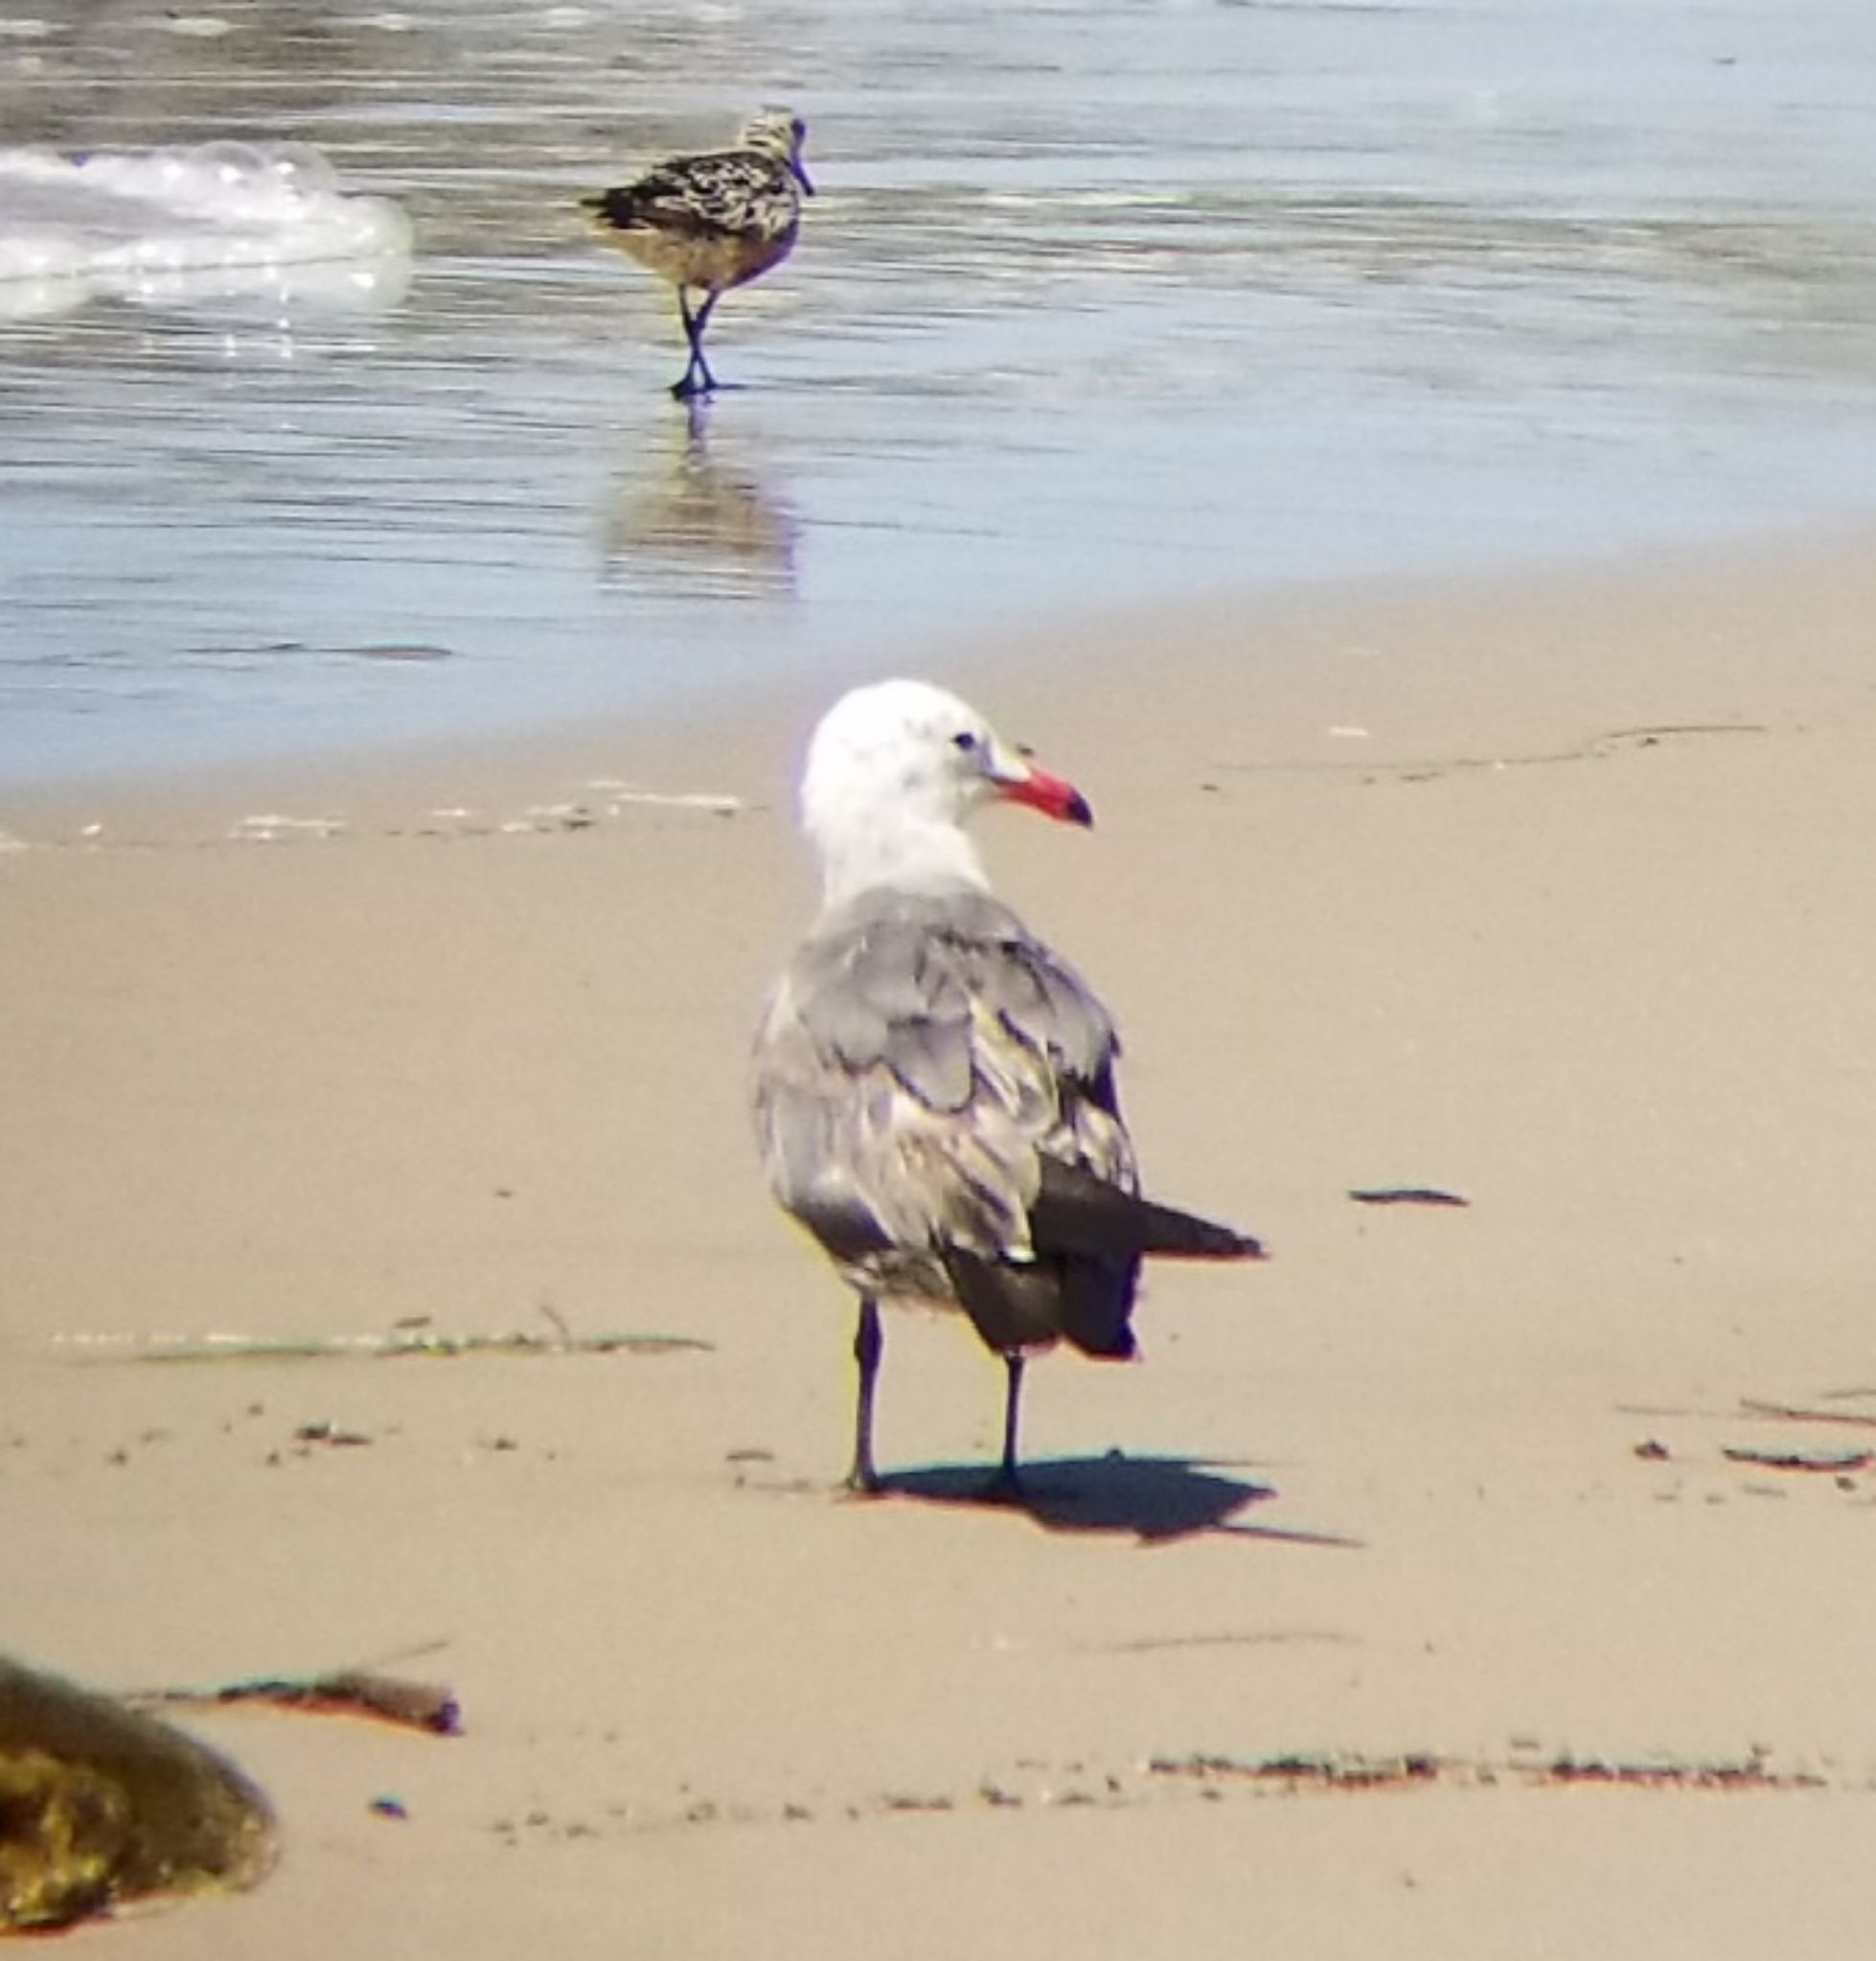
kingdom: Animalia
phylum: Chordata
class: Aves
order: Charadriiformes
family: Laridae
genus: Larus
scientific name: Larus heermanni
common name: Heermann's gull
